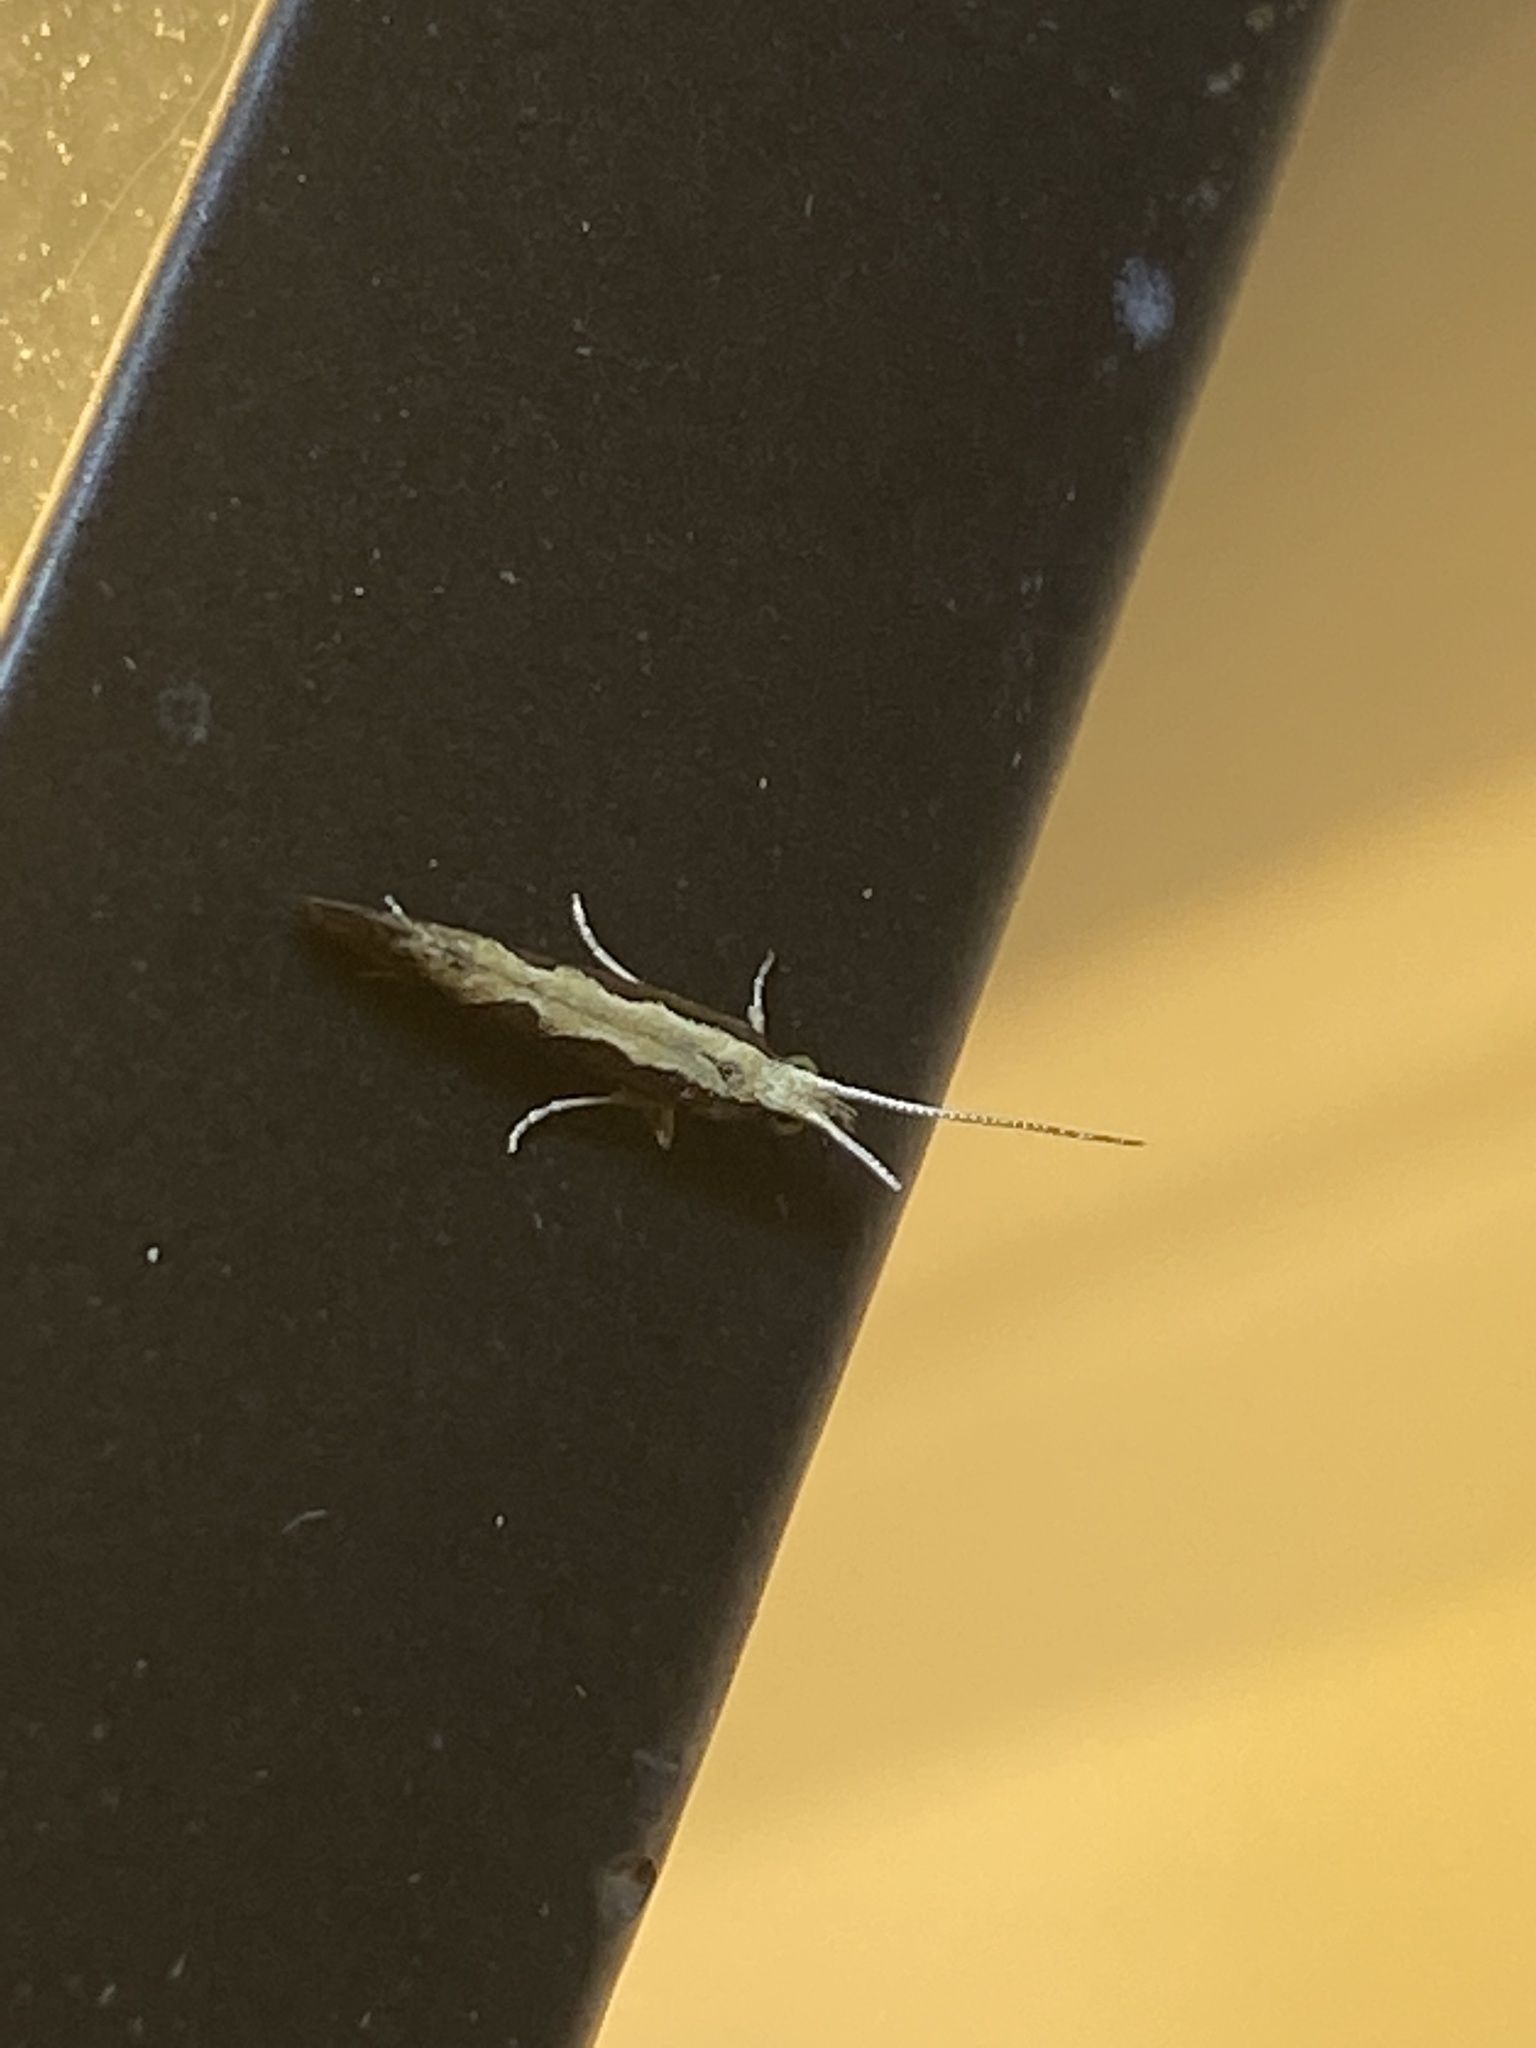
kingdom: Animalia
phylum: Arthropoda
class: Insecta
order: Lepidoptera
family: Plutellidae
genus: Plutella
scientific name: Plutella xylostella
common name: Diamond-back moth
